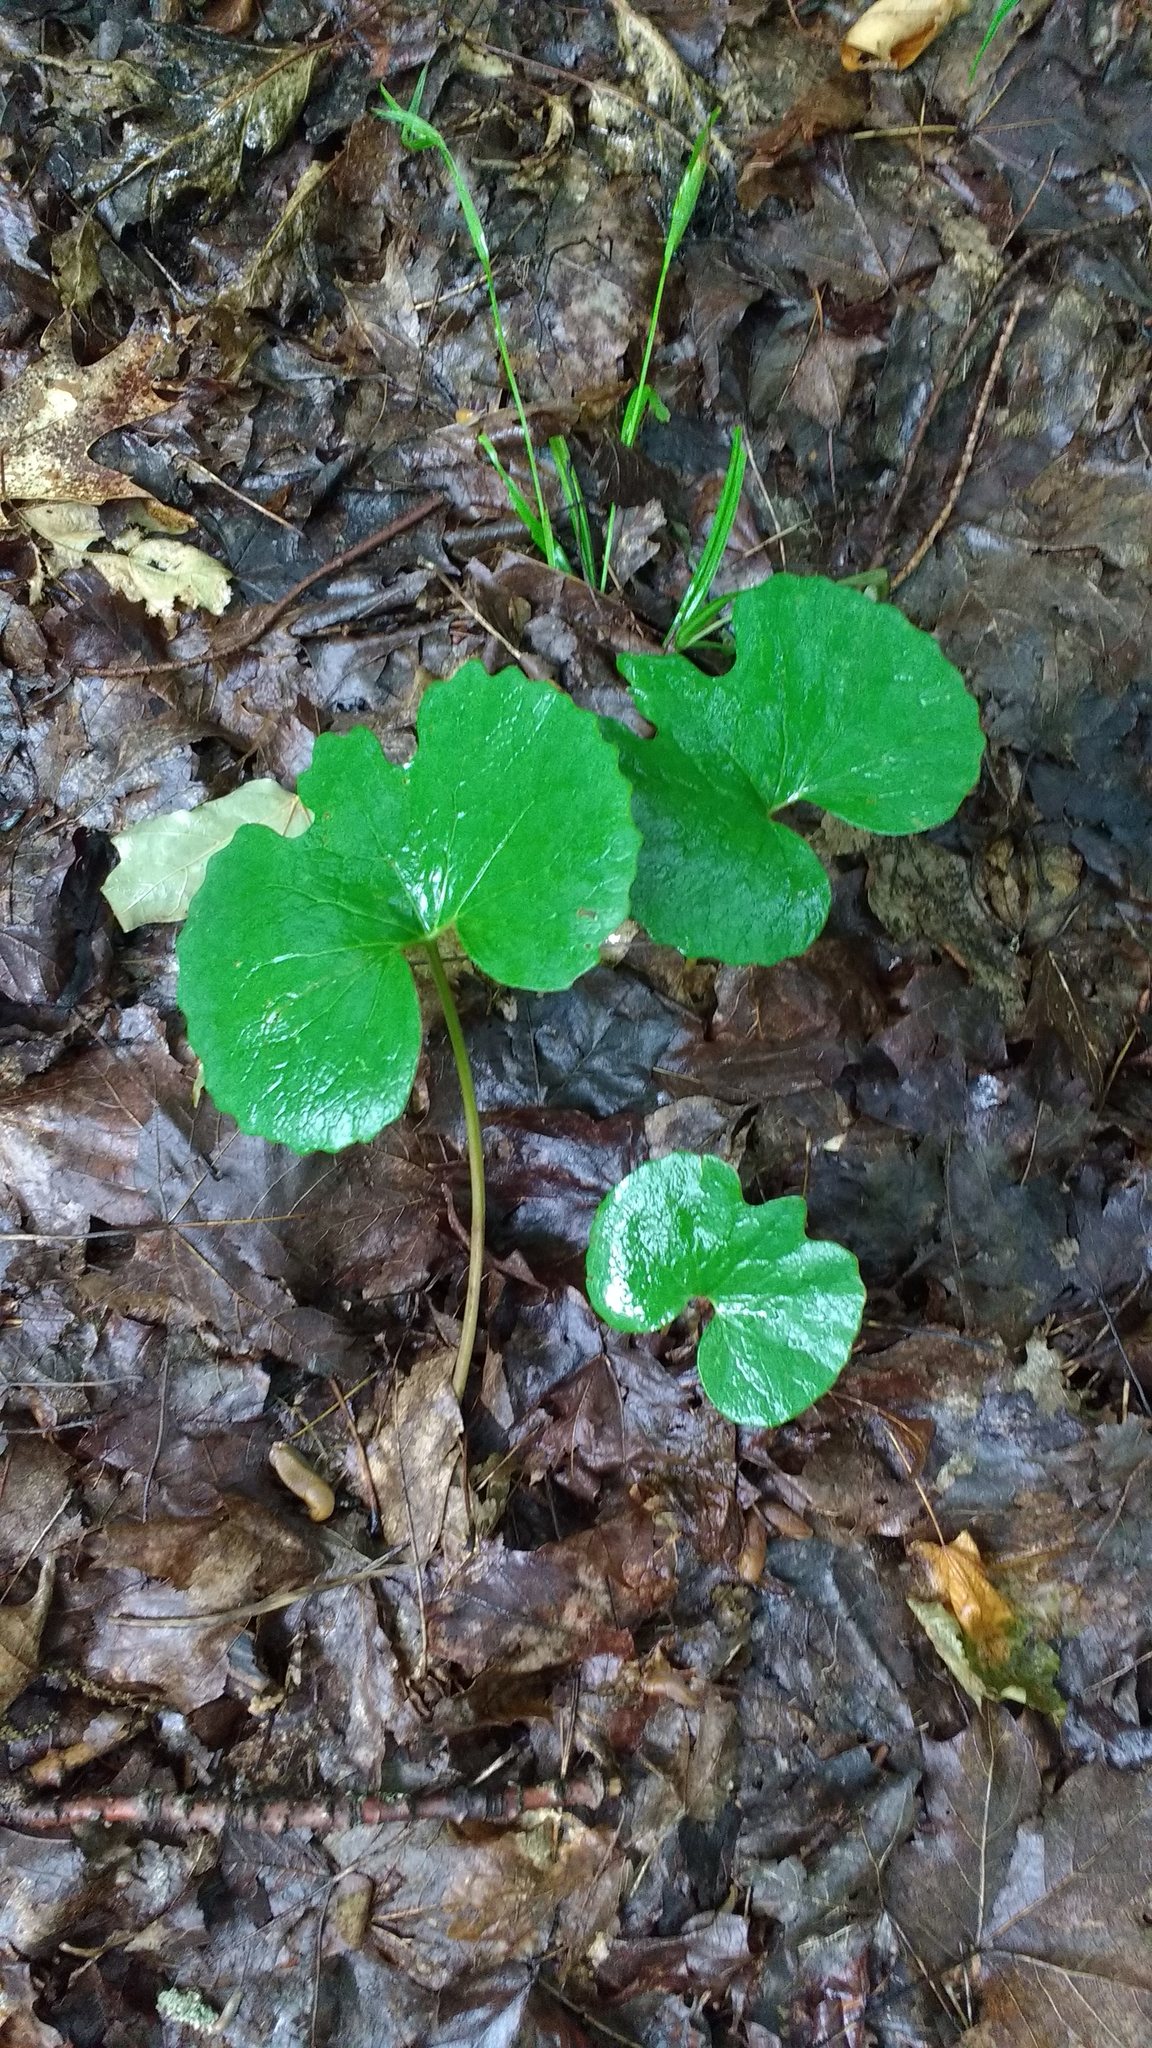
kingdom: Plantae
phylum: Tracheophyta
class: Magnoliopsida
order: Ranunculales
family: Papaveraceae
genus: Sanguinaria
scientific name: Sanguinaria canadensis
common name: Bloodroot
